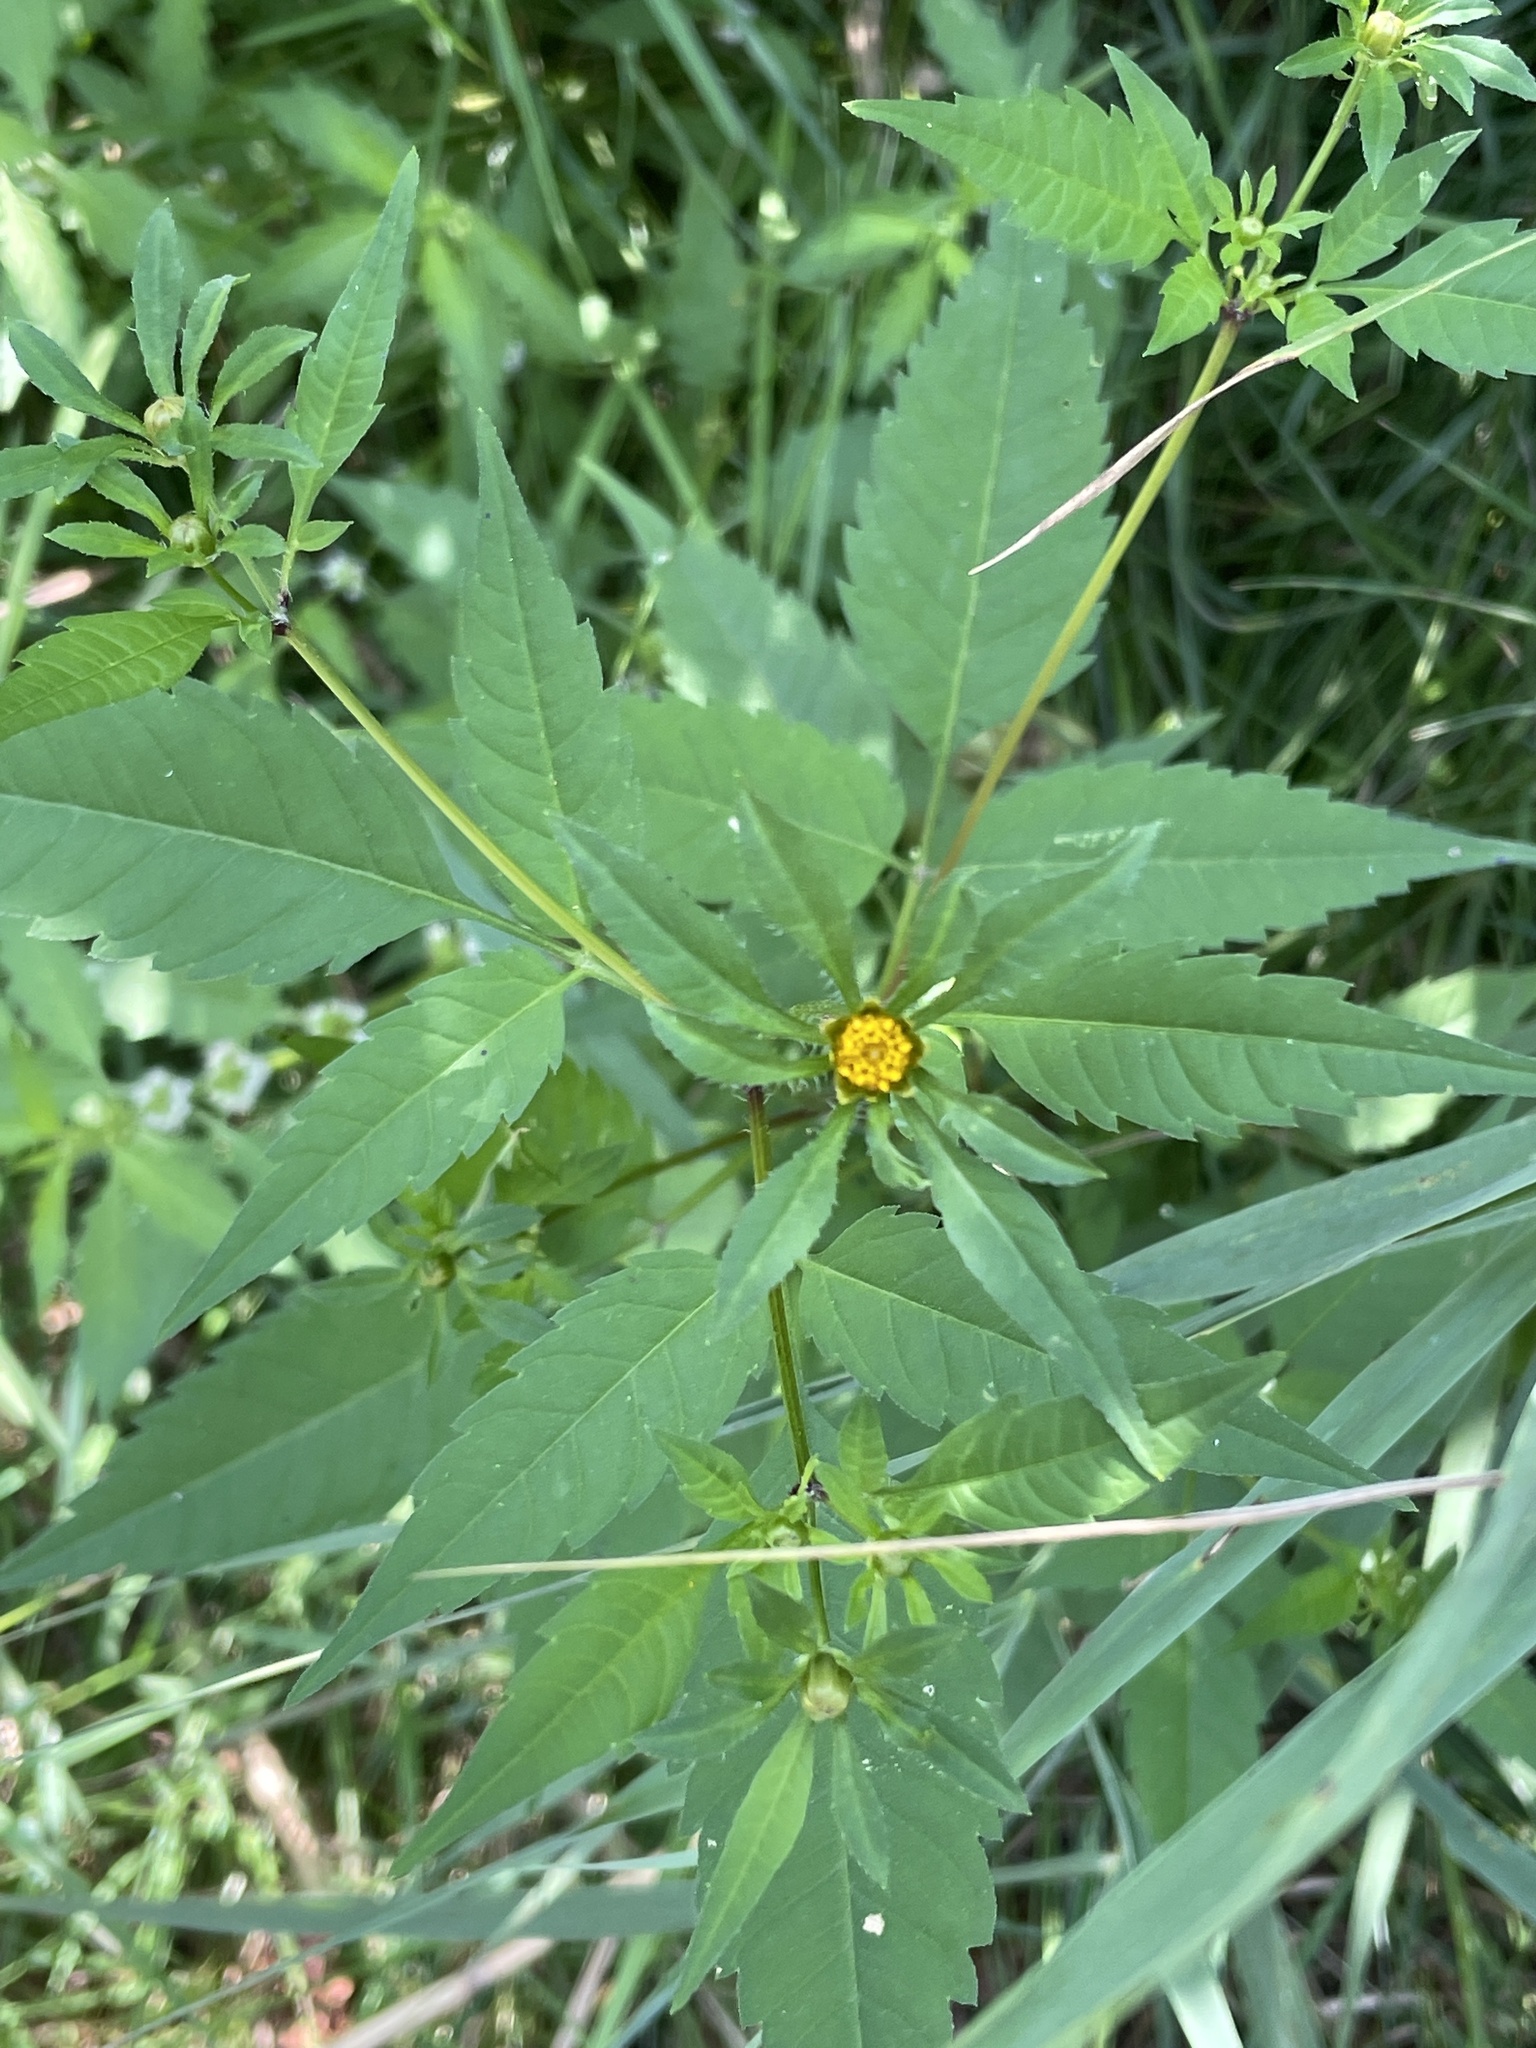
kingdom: Plantae
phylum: Tracheophyta
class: Magnoliopsida
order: Asterales
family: Asteraceae
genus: Bidens
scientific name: Bidens frondosa
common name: Beggarticks
